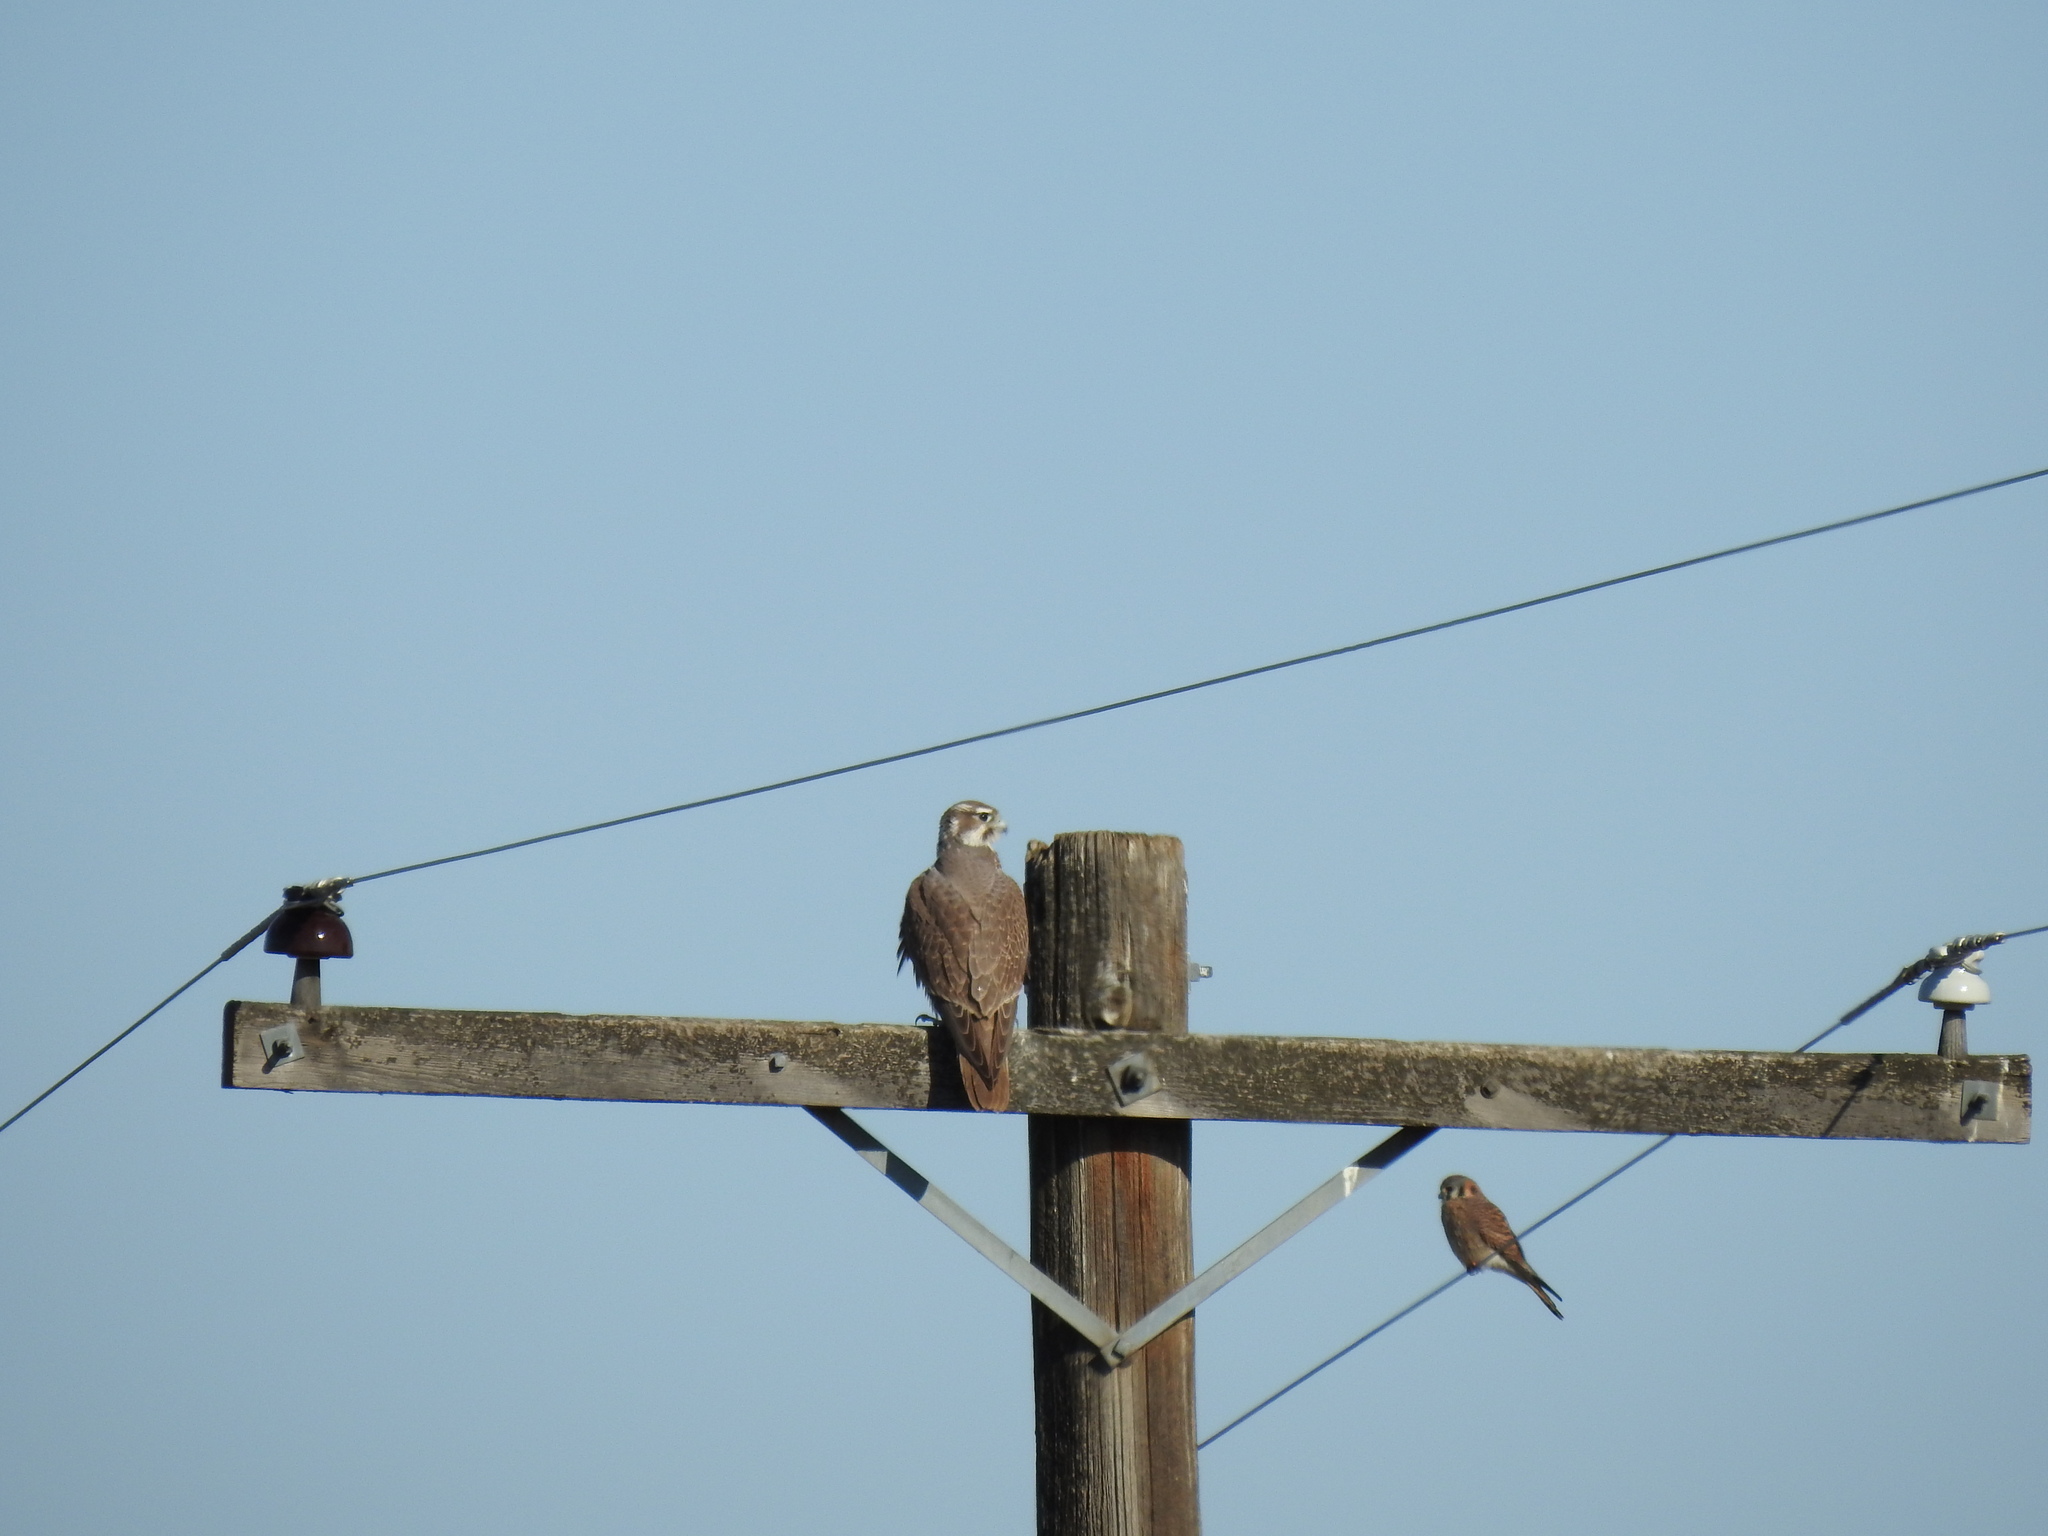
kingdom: Animalia
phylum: Chordata
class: Aves
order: Falconiformes
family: Falconidae
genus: Falco
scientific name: Falco sparverius
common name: American kestrel
